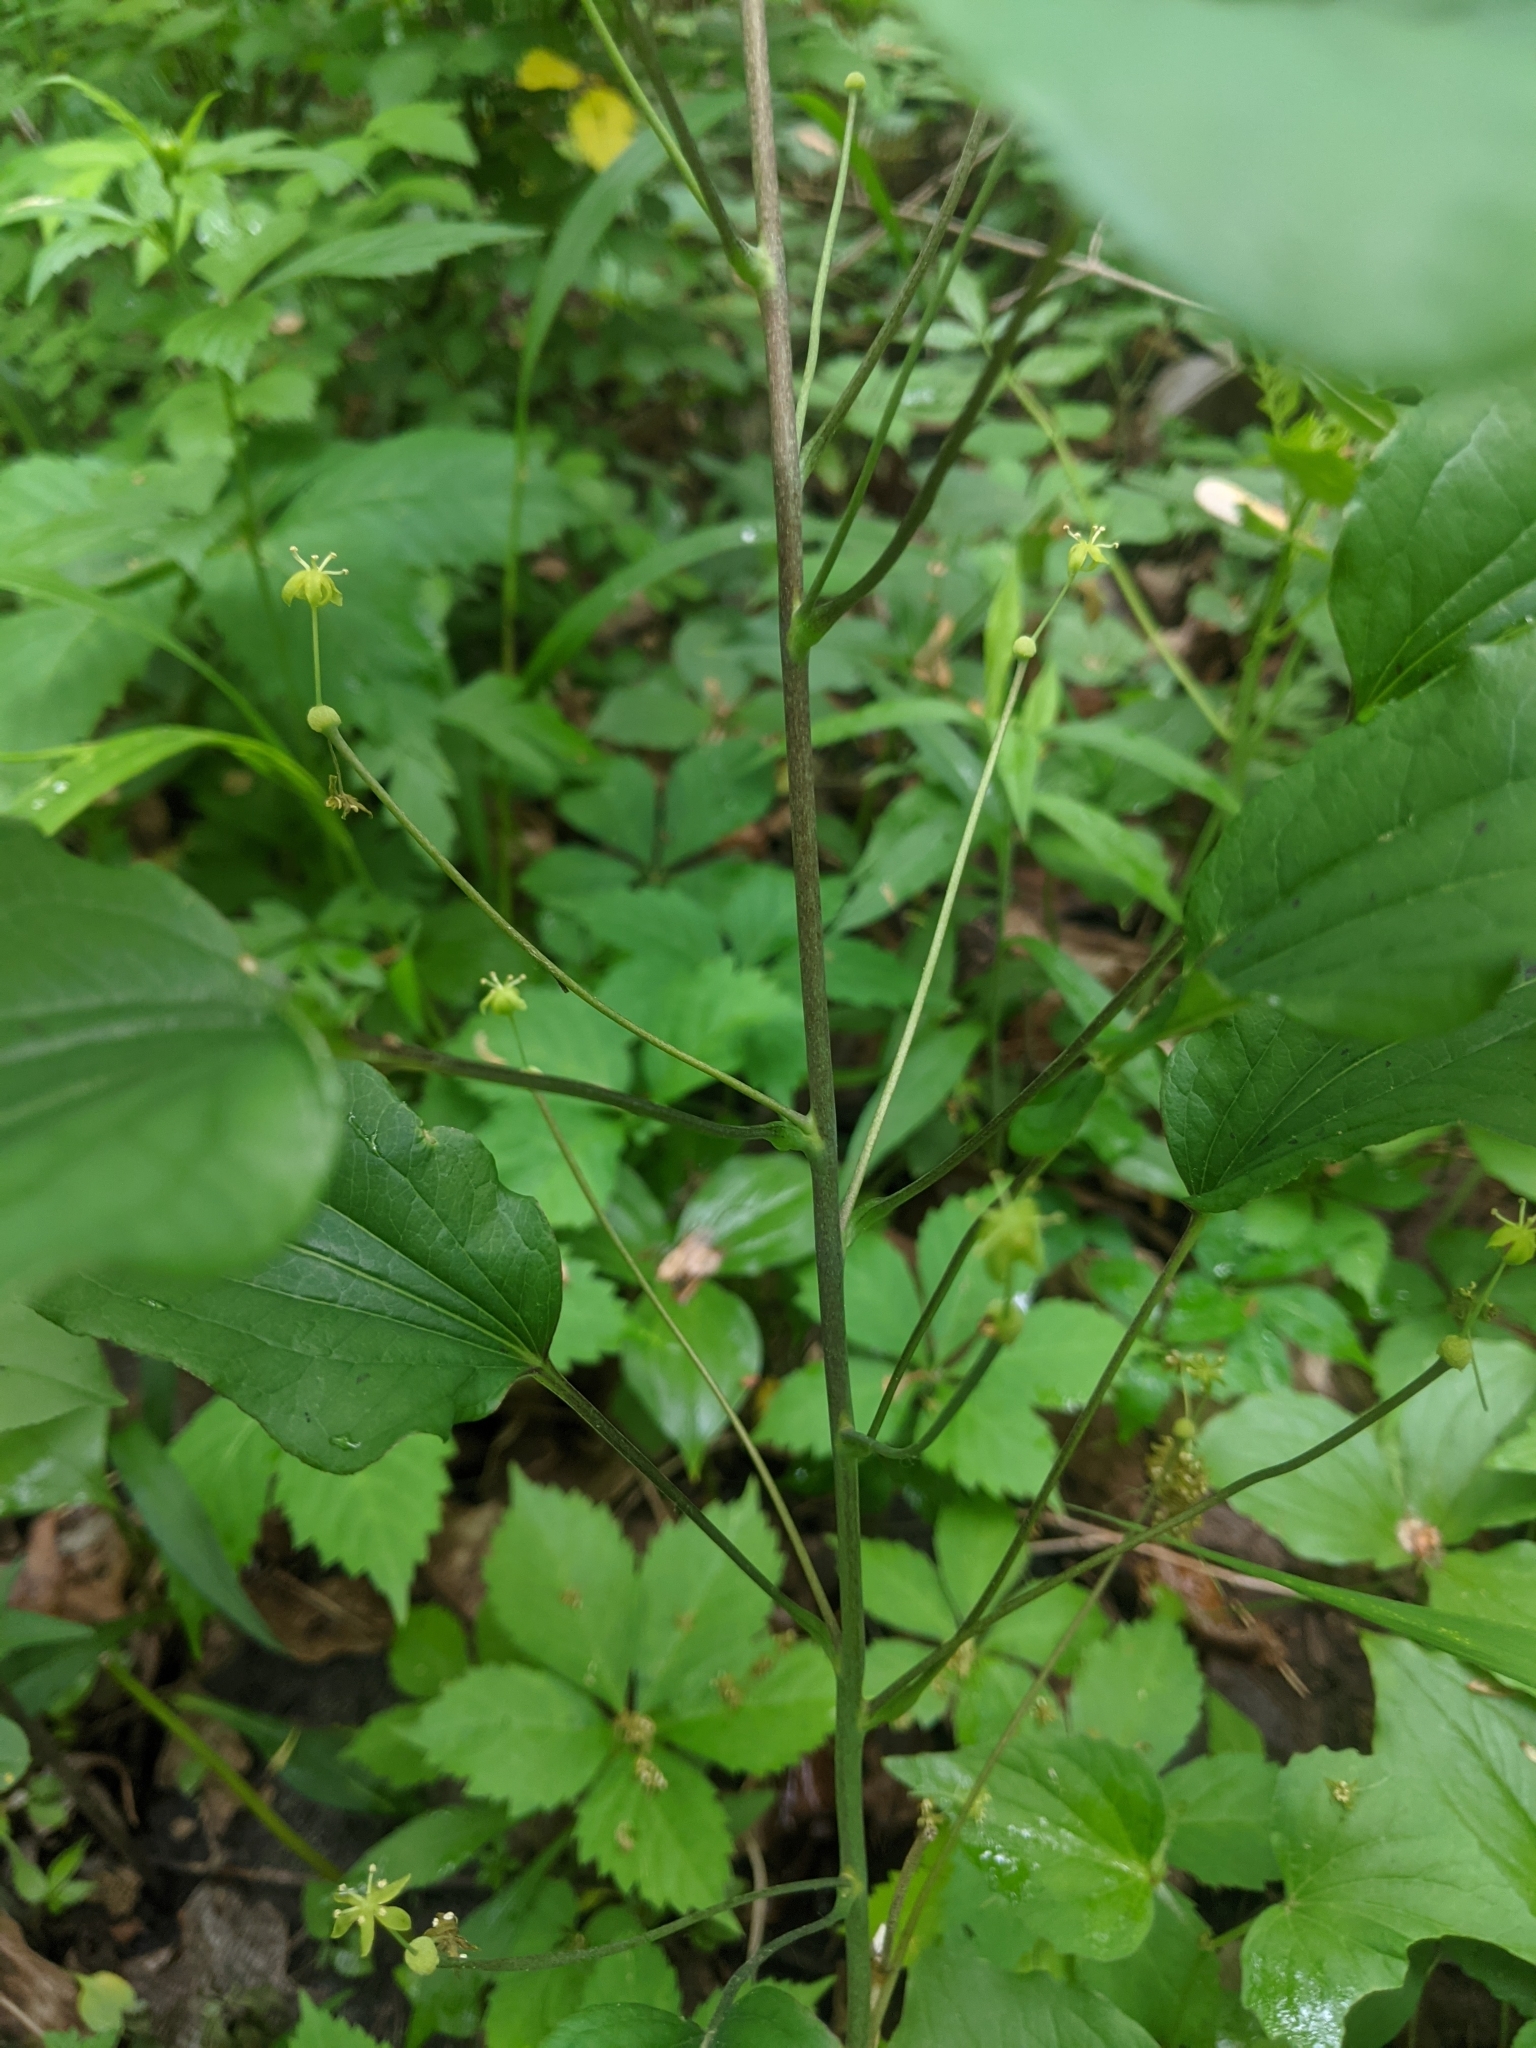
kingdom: Plantae
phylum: Tracheophyta
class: Liliopsida
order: Liliales
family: Smilacaceae
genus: Smilax
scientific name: Smilax illinoensis
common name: Illinois carrionflower
